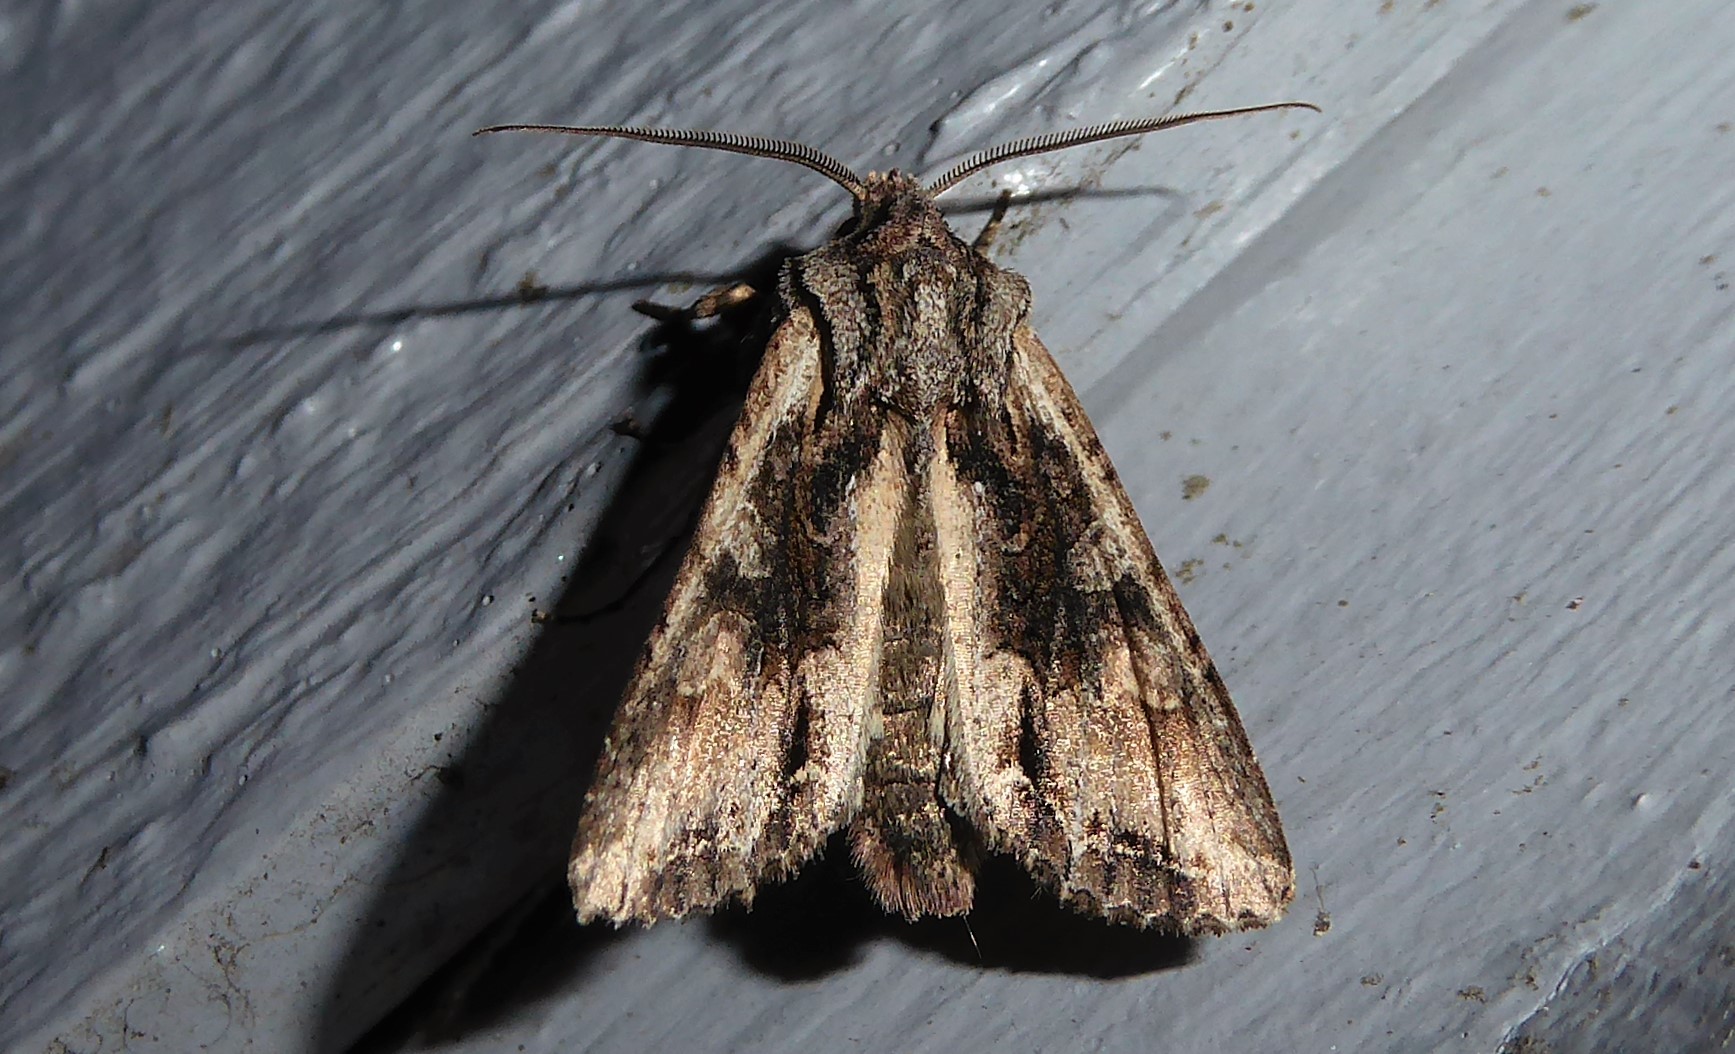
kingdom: Animalia
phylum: Arthropoda
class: Insecta
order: Lepidoptera
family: Noctuidae
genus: Ichneutica
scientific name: Ichneutica mutans
